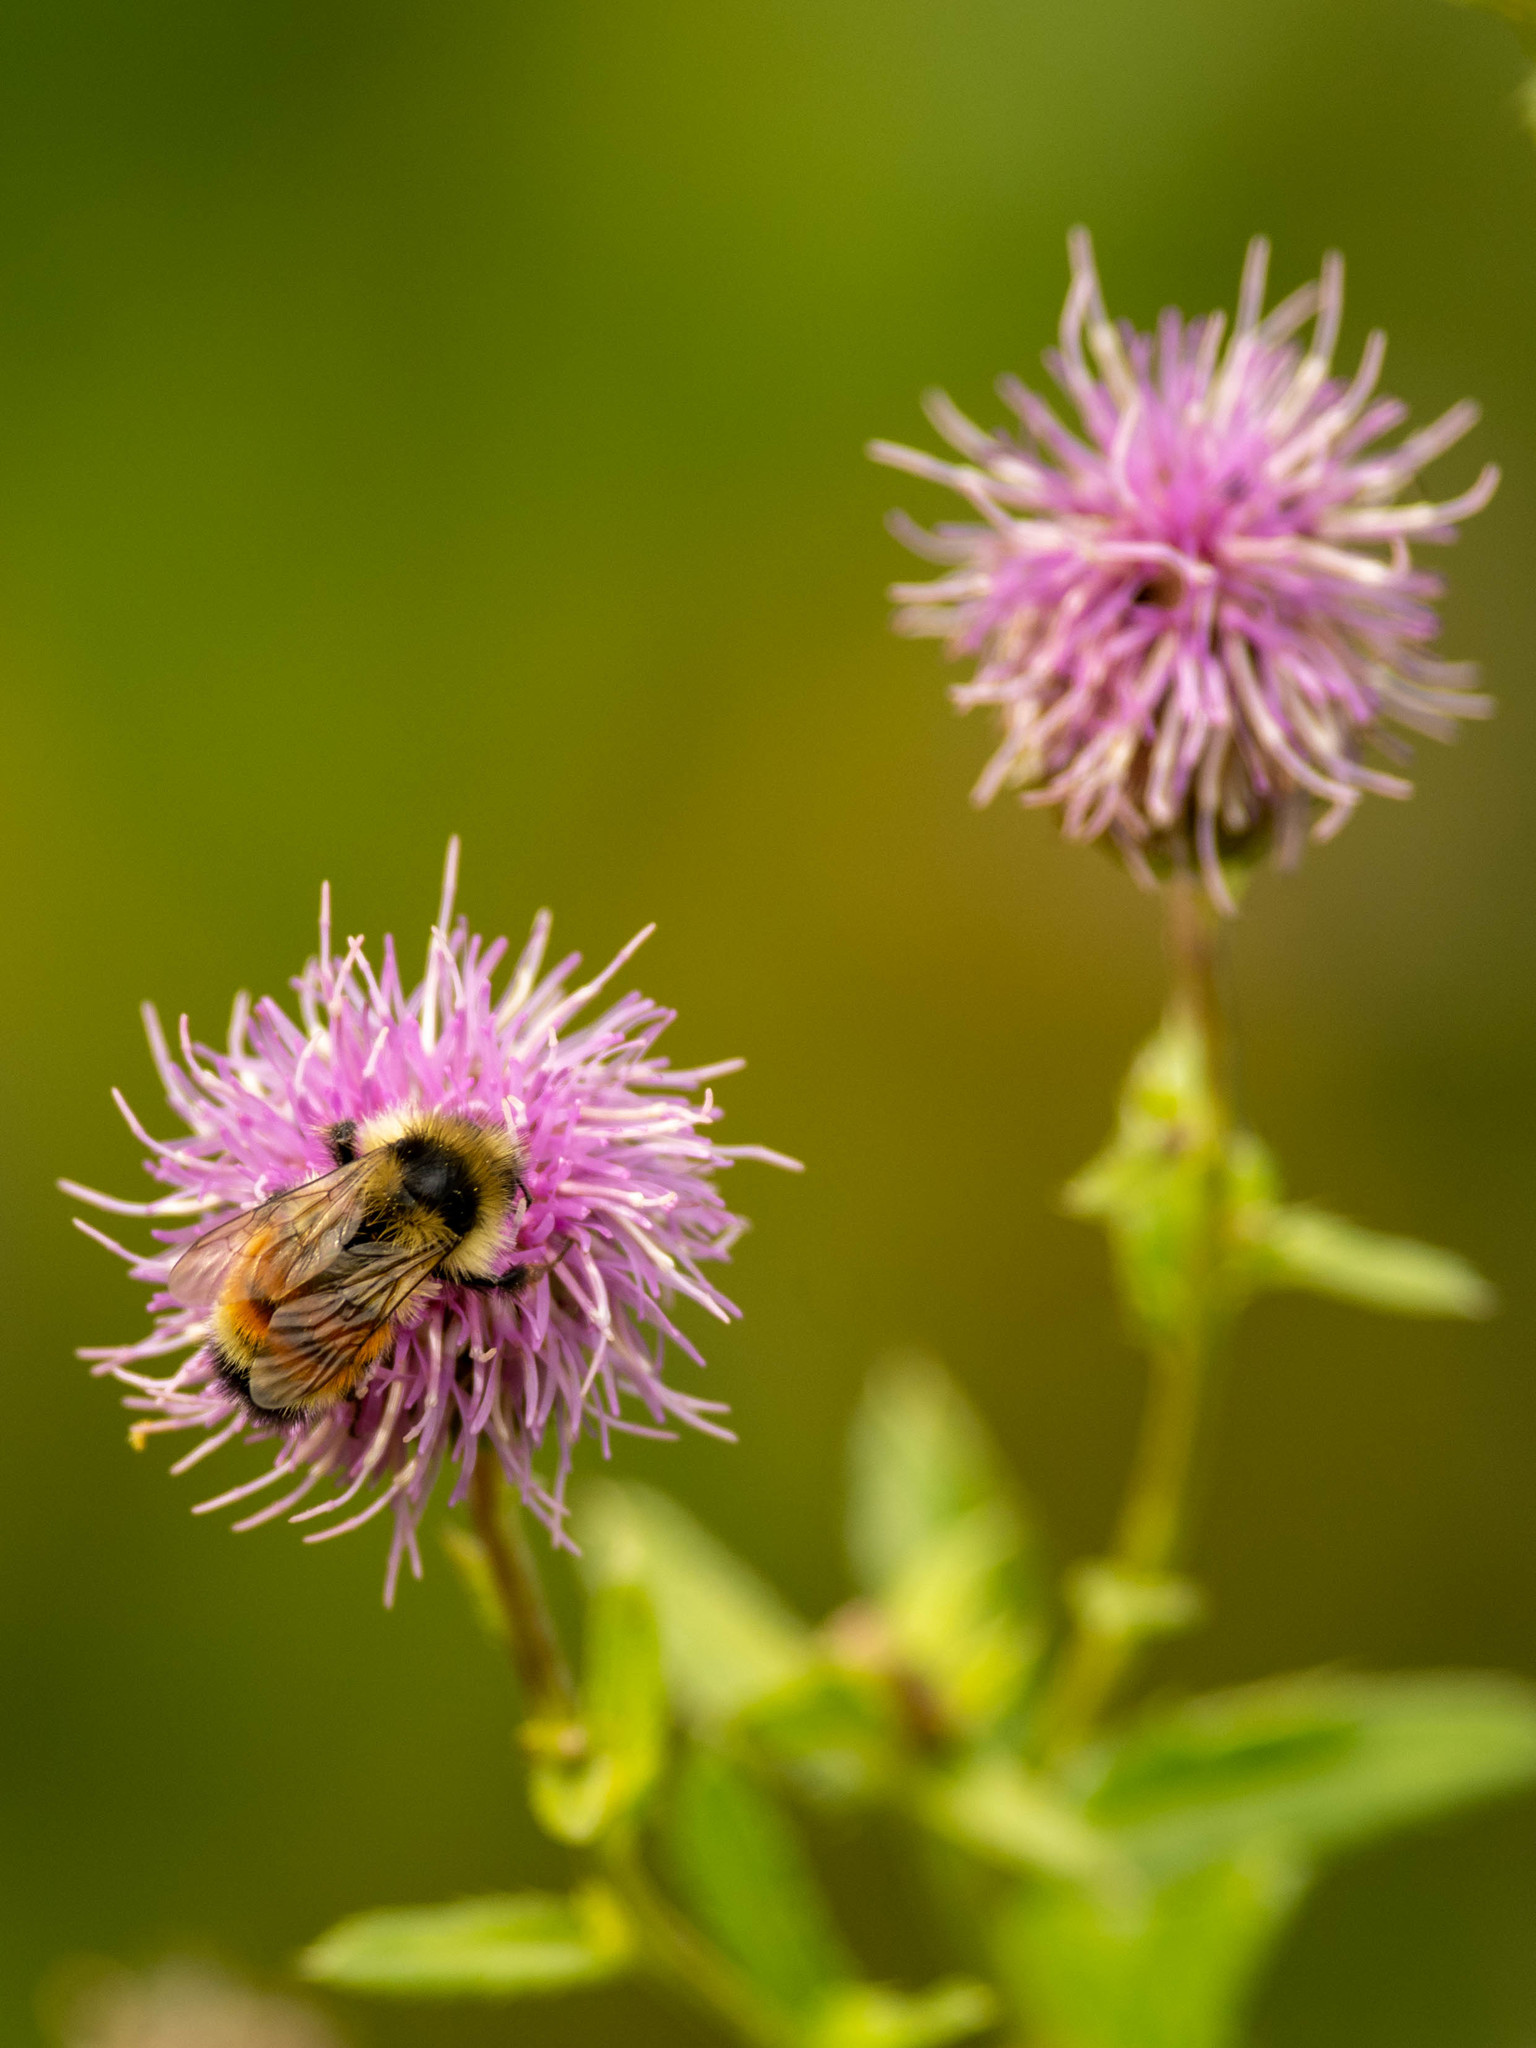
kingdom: Animalia
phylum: Arthropoda
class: Insecta
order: Hymenoptera
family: Apidae
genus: Bombus
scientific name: Bombus ternarius
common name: Tri-colored bumble bee
